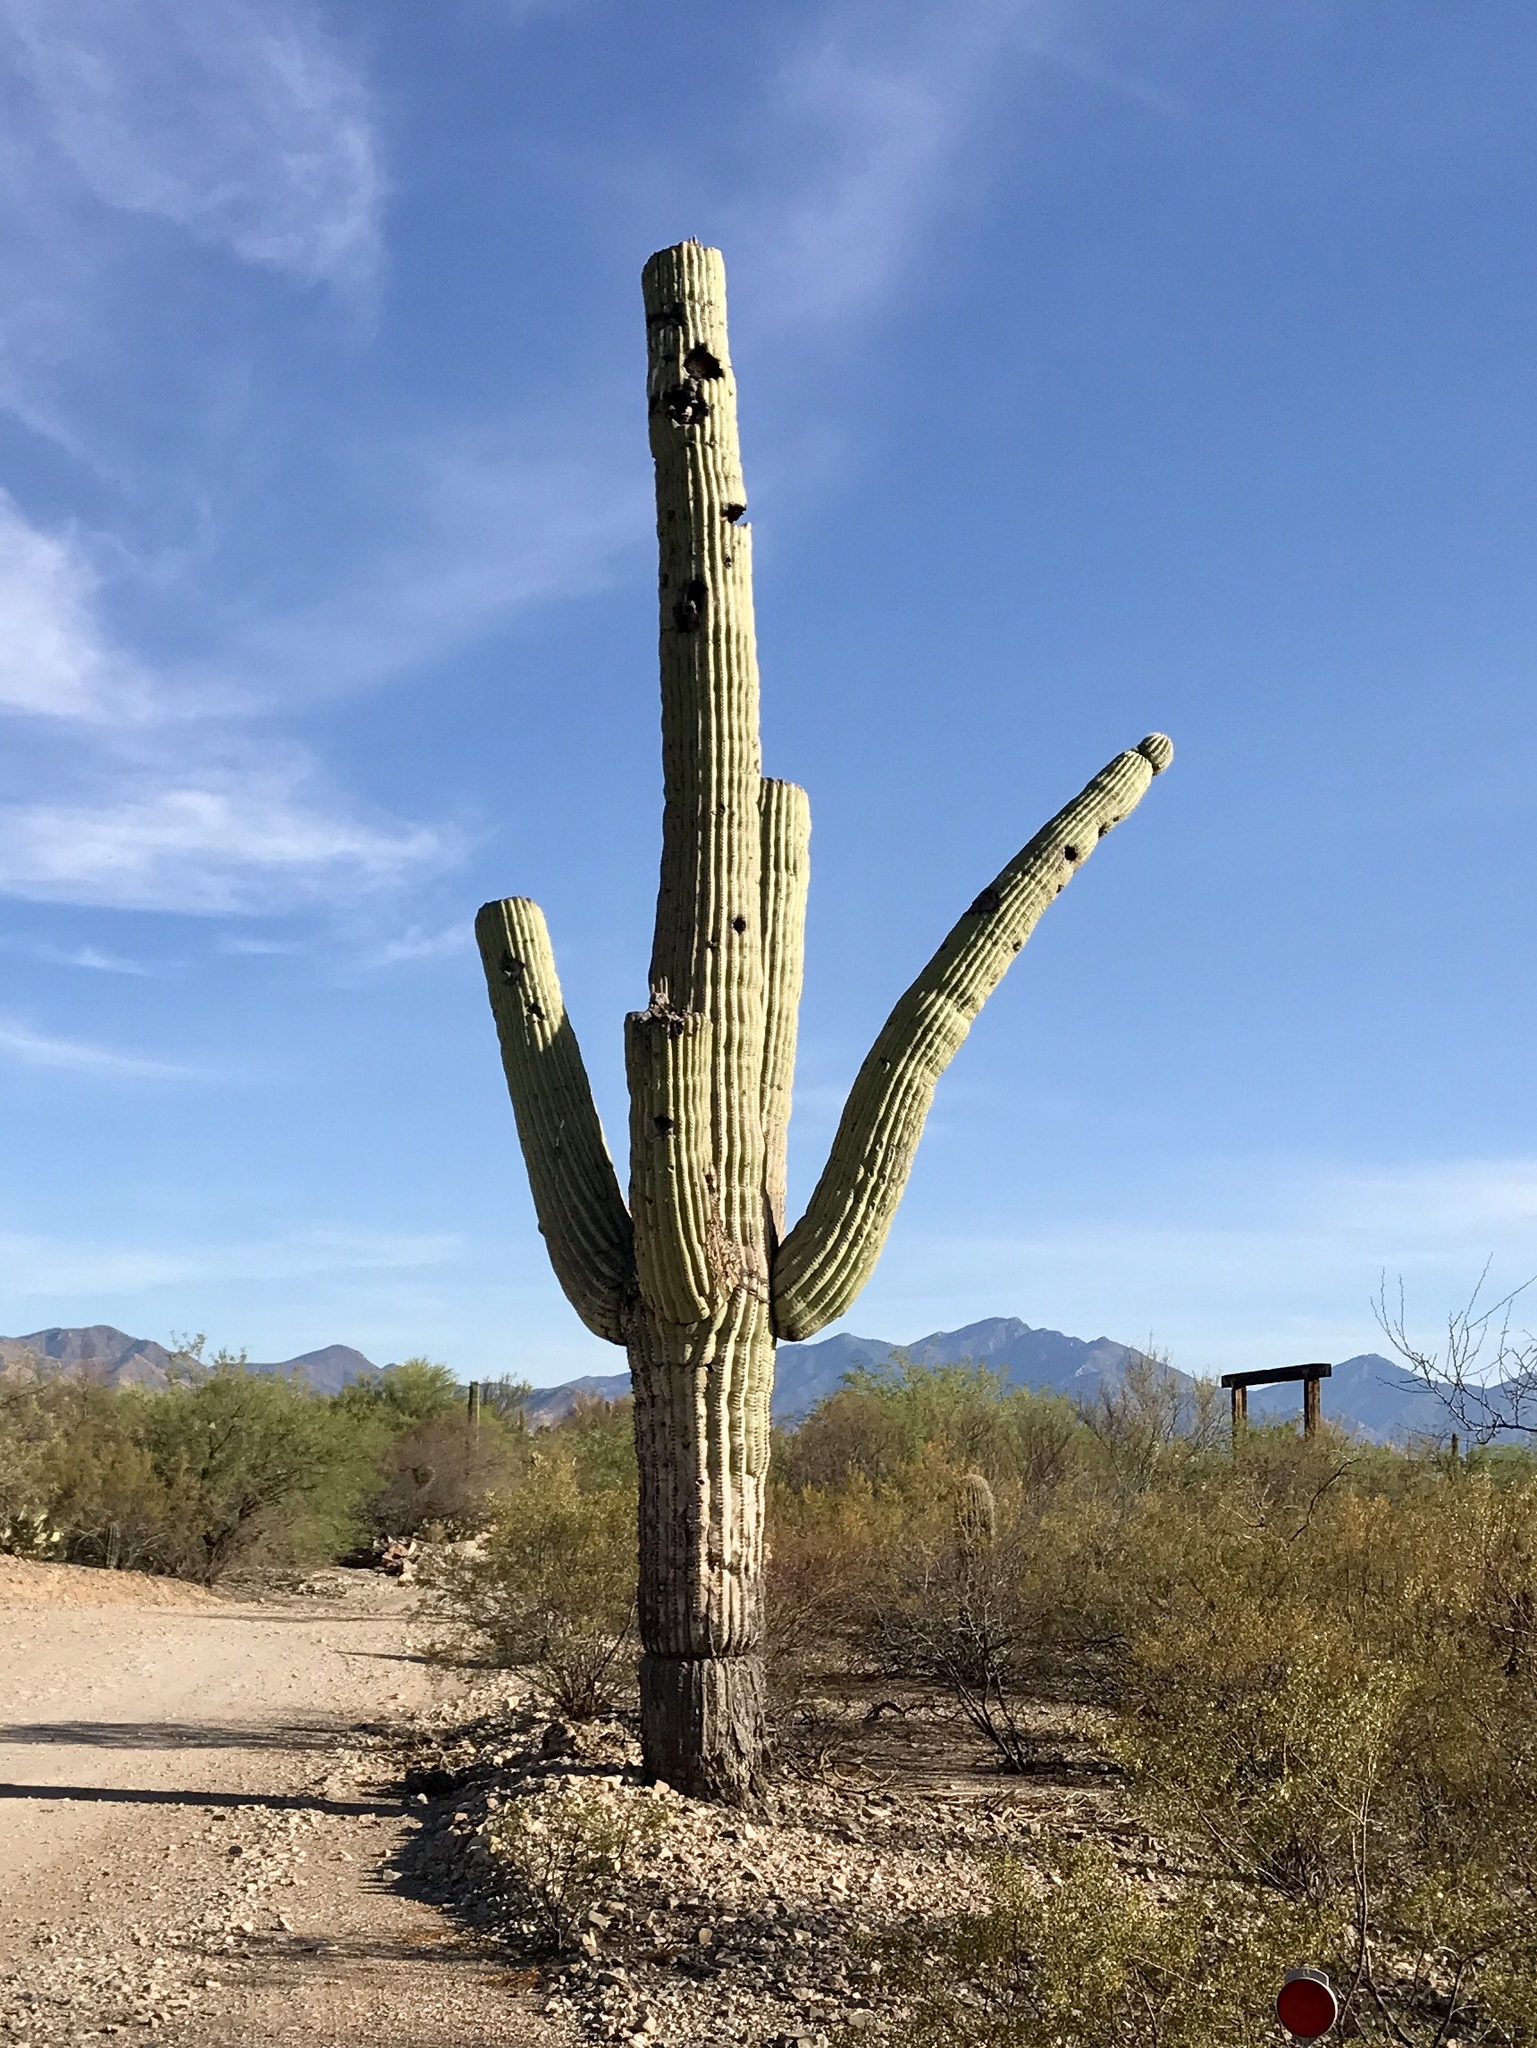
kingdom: Plantae
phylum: Tracheophyta
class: Magnoliopsida
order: Caryophyllales
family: Cactaceae
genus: Carnegiea
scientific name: Carnegiea gigantea
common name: Saguaro
